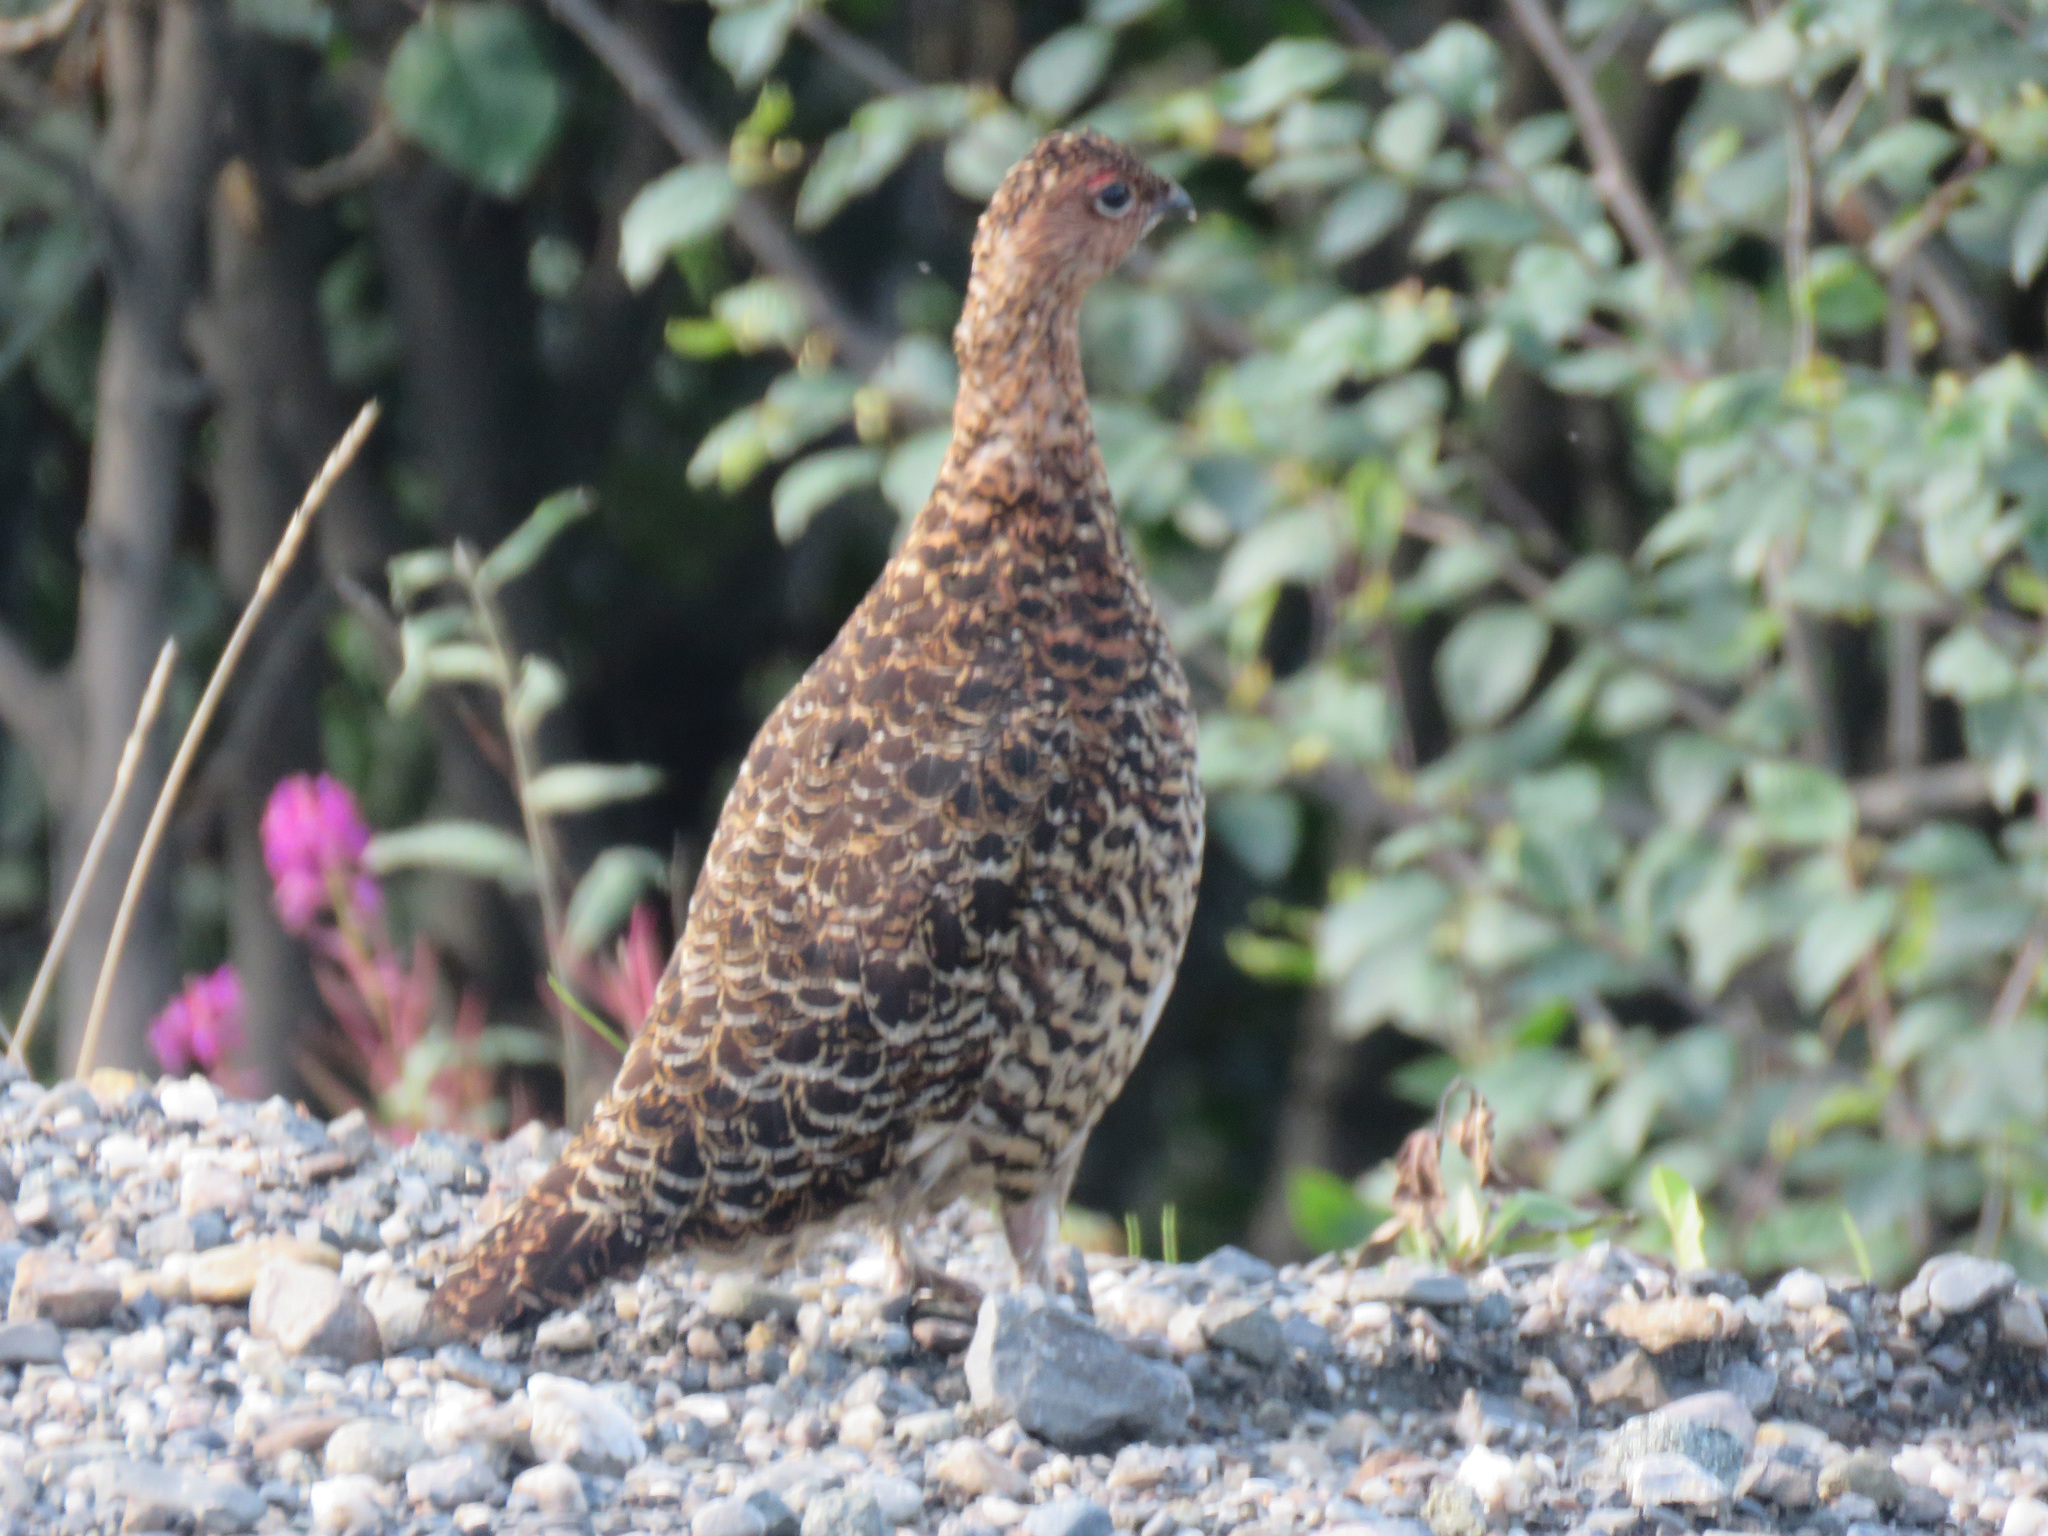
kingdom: Animalia
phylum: Chordata
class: Aves
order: Galliformes
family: Phasianidae
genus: Lagopus
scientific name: Lagopus lagopus
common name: Willow ptarmigan
